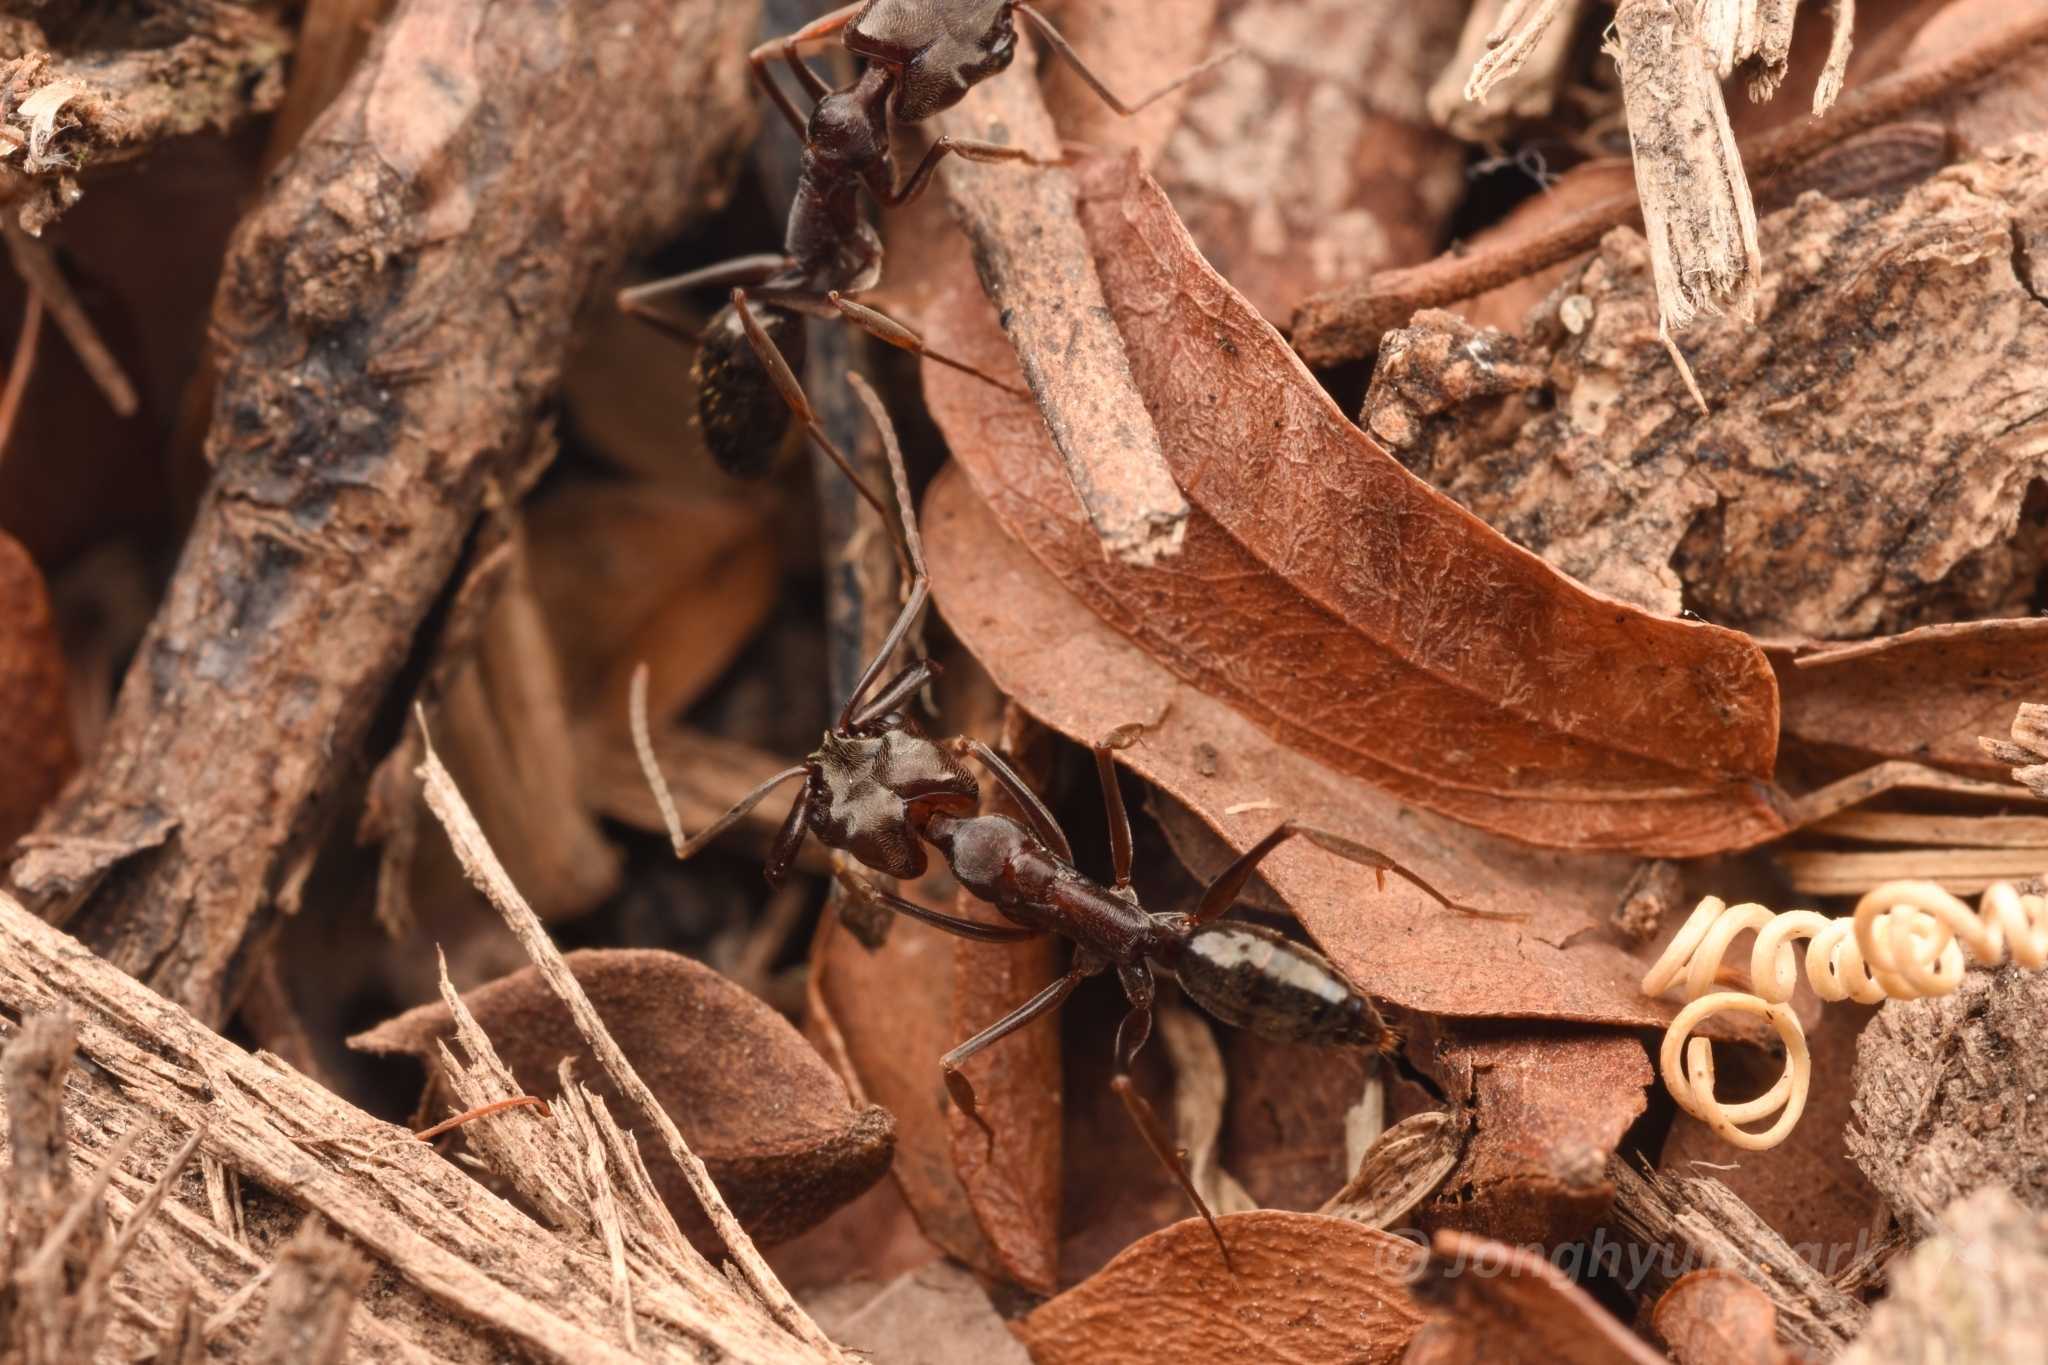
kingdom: Animalia
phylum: Arthropoda
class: Insecta
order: Hymenoptera
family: Formicidae
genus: Odontomachus
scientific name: Odontomachus simillimus
